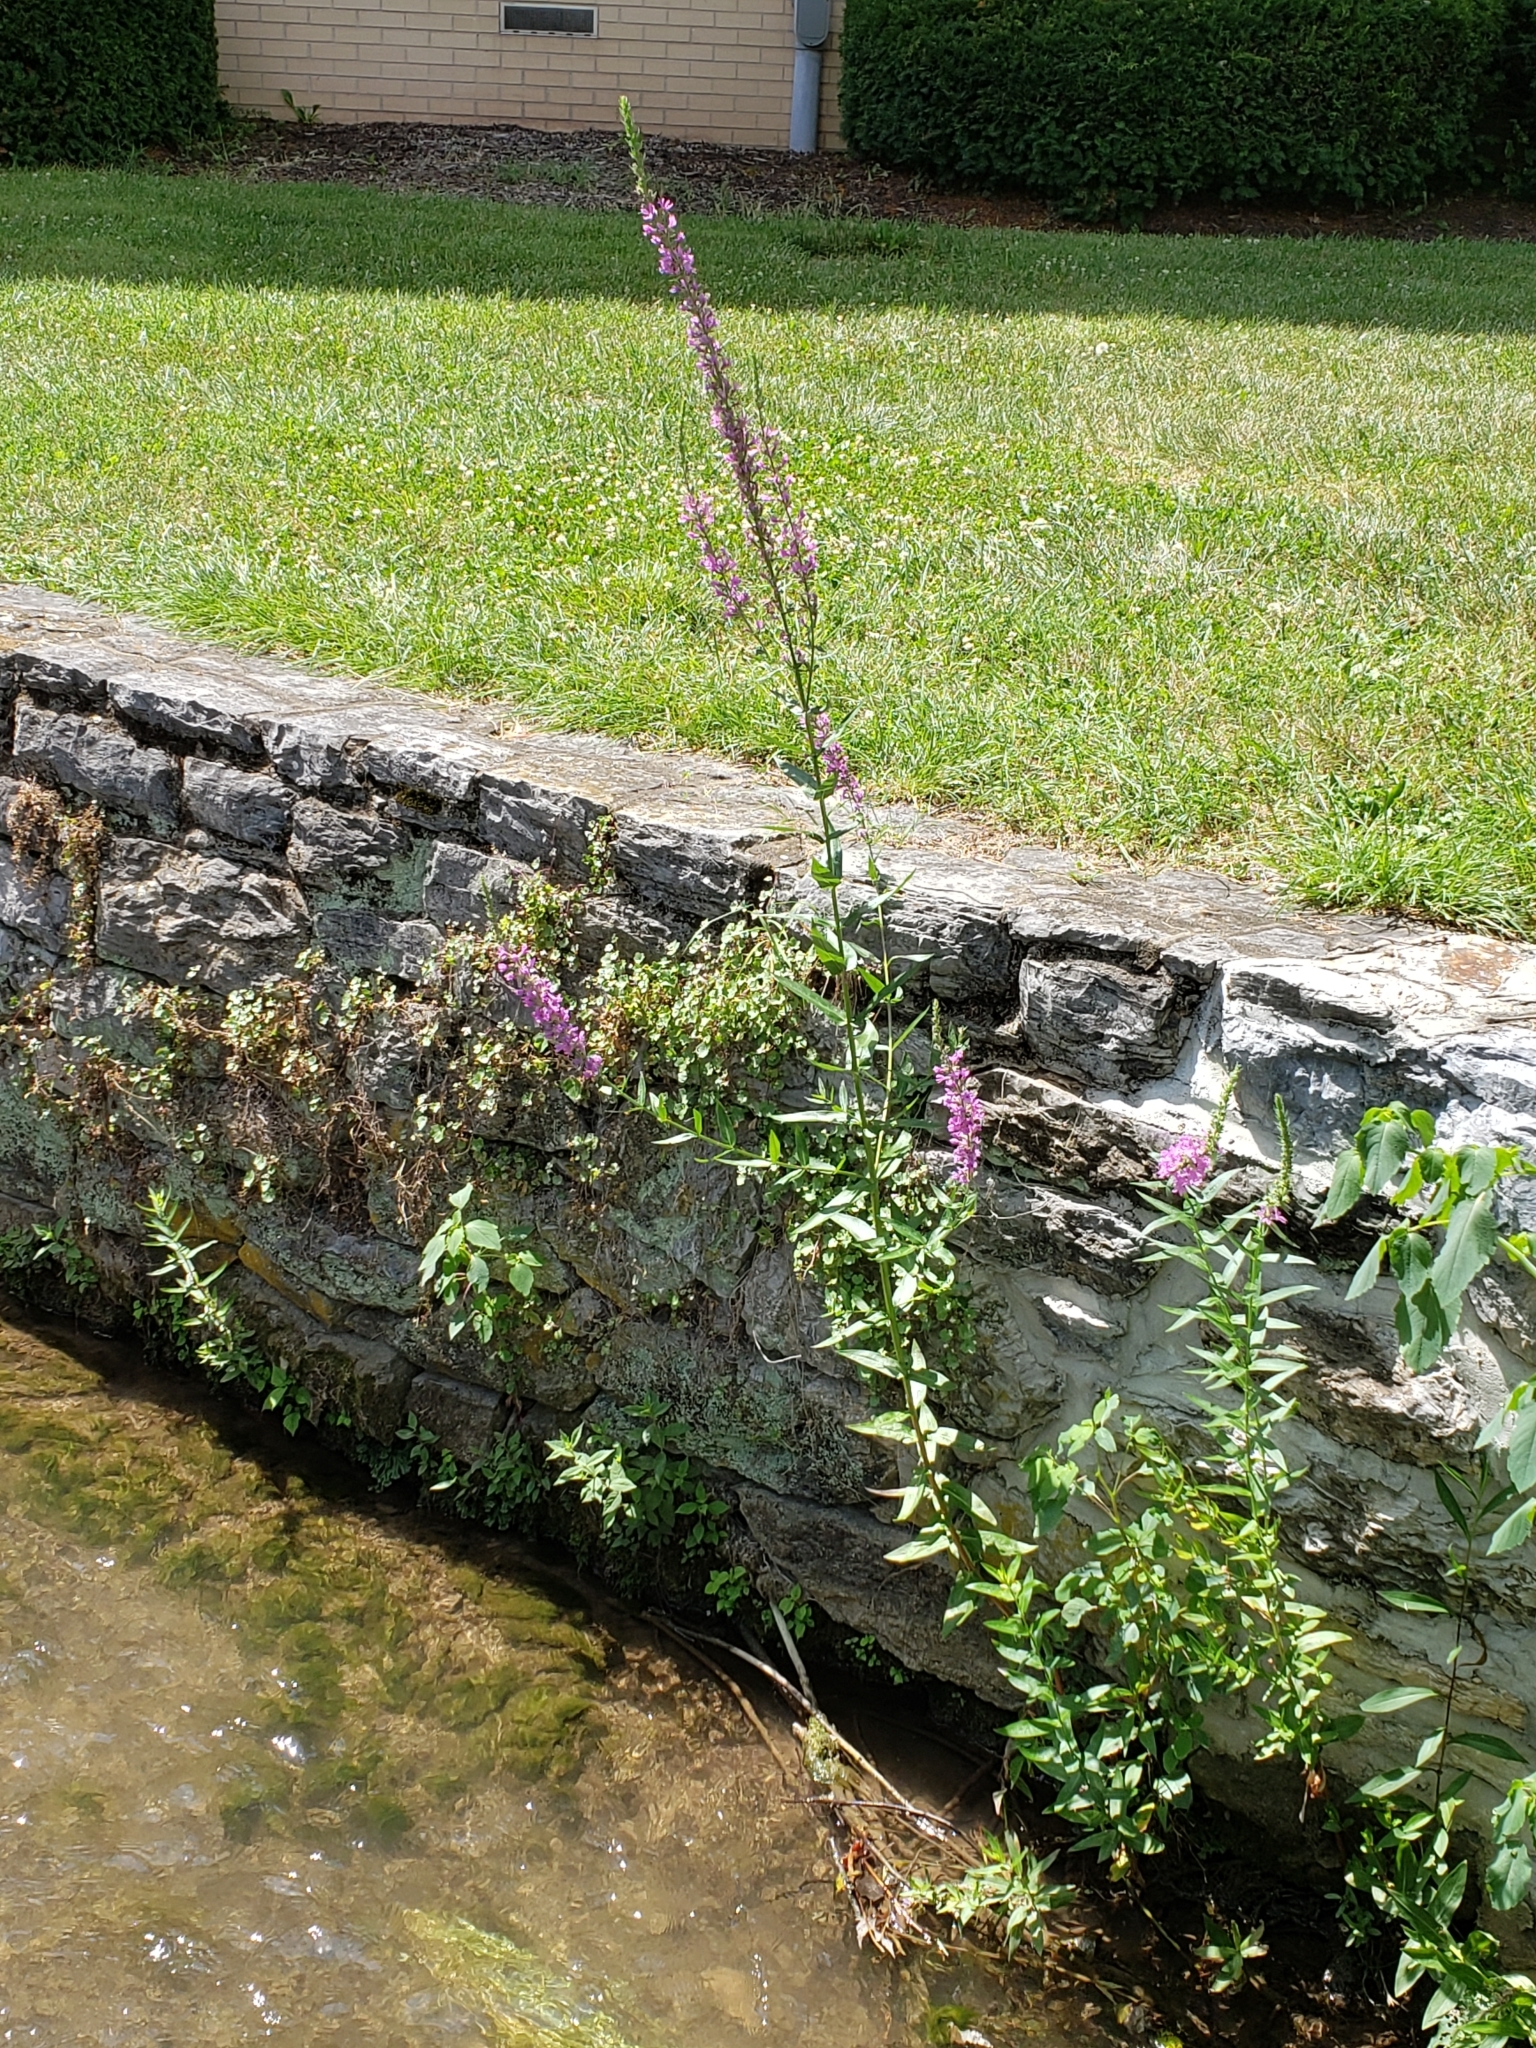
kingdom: Plantae
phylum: Tracheophyta
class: Magnoliopsida
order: Myrtales
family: Lythraceae
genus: Lythrum
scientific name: Lythrum salicaria
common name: Purple loosestrife
